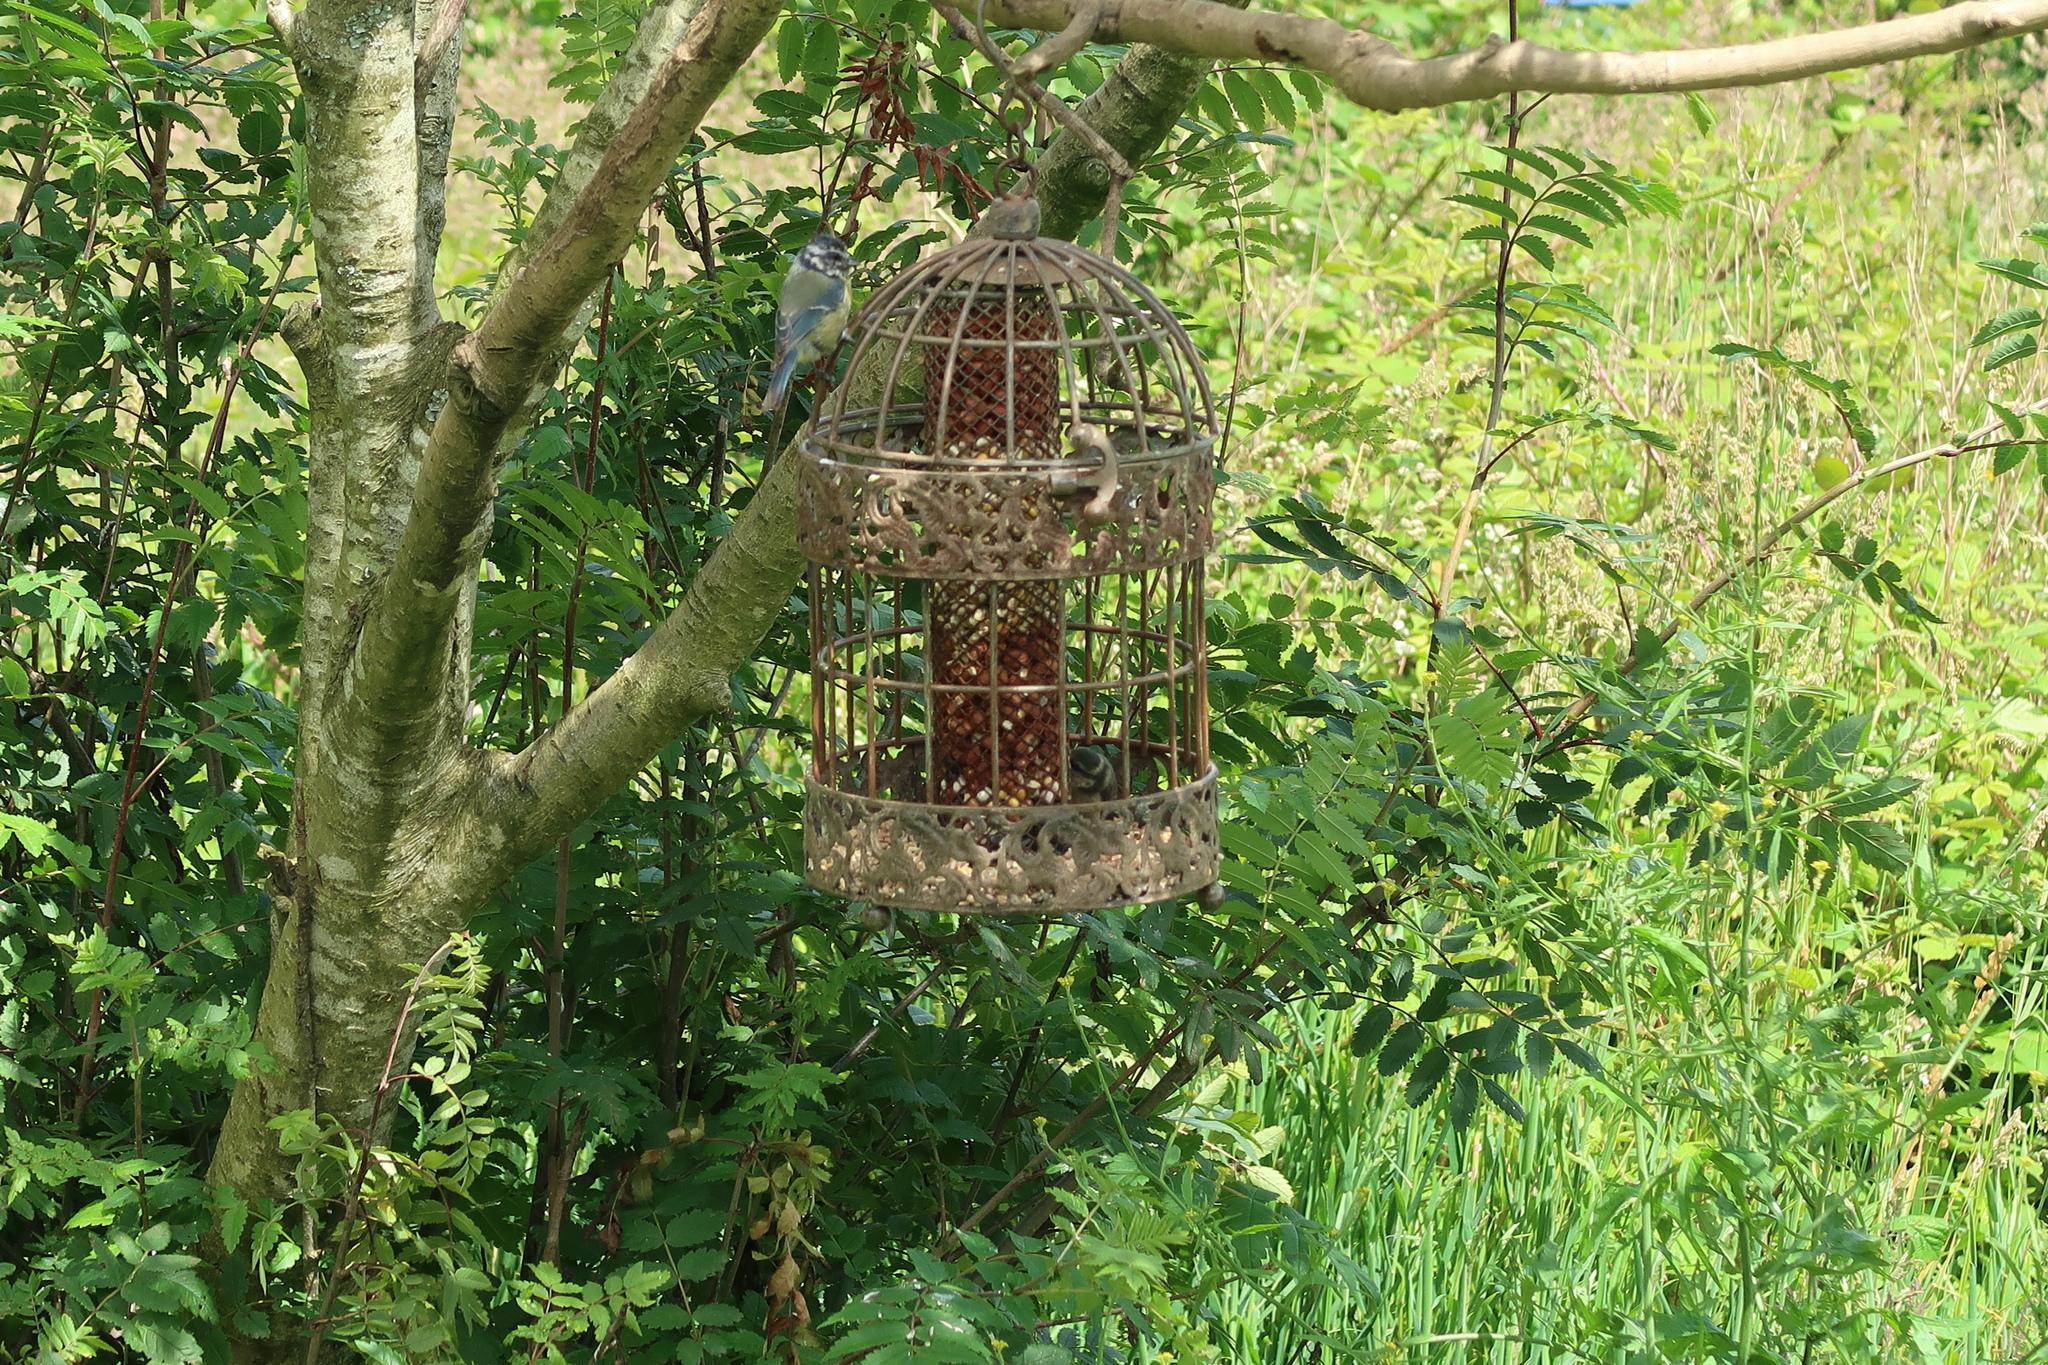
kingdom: Animalia
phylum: Chordata
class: Aves
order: Passeriformes
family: Paridae
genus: Cyanistes
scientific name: Cyanistes caeruleus
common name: Eurasian blue tit
